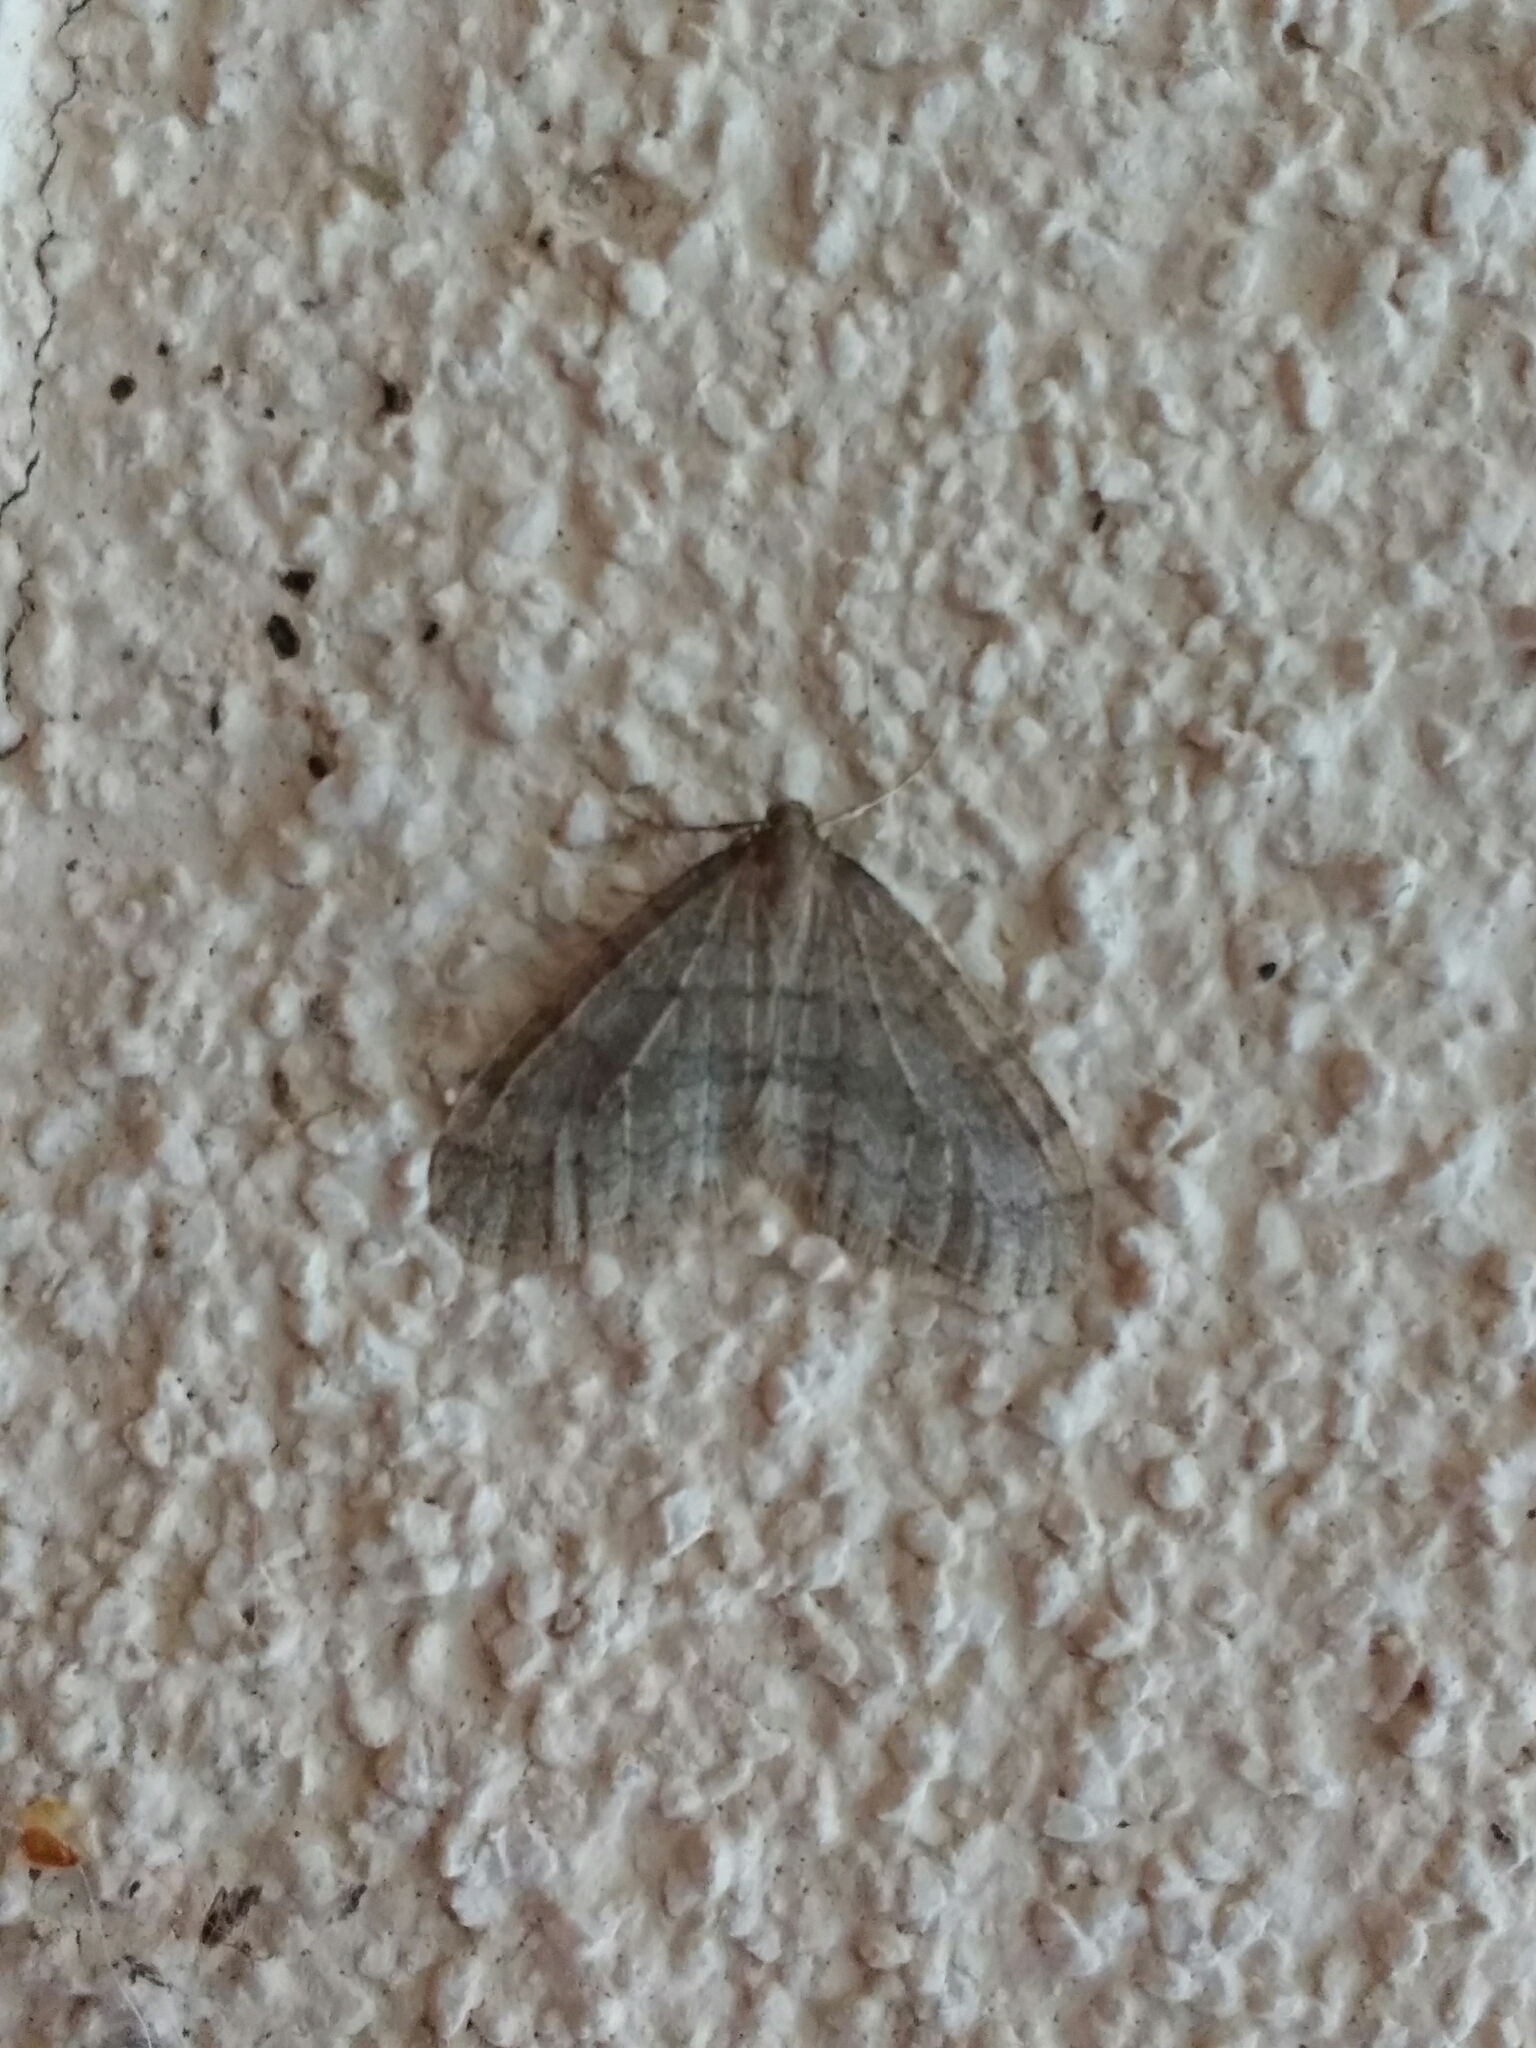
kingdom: Animalia
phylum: Arthropoda
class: Insecta
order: Lepidoptera
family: Geometridae
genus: Operophtera
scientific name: Operophtera brumata
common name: Winter moth
